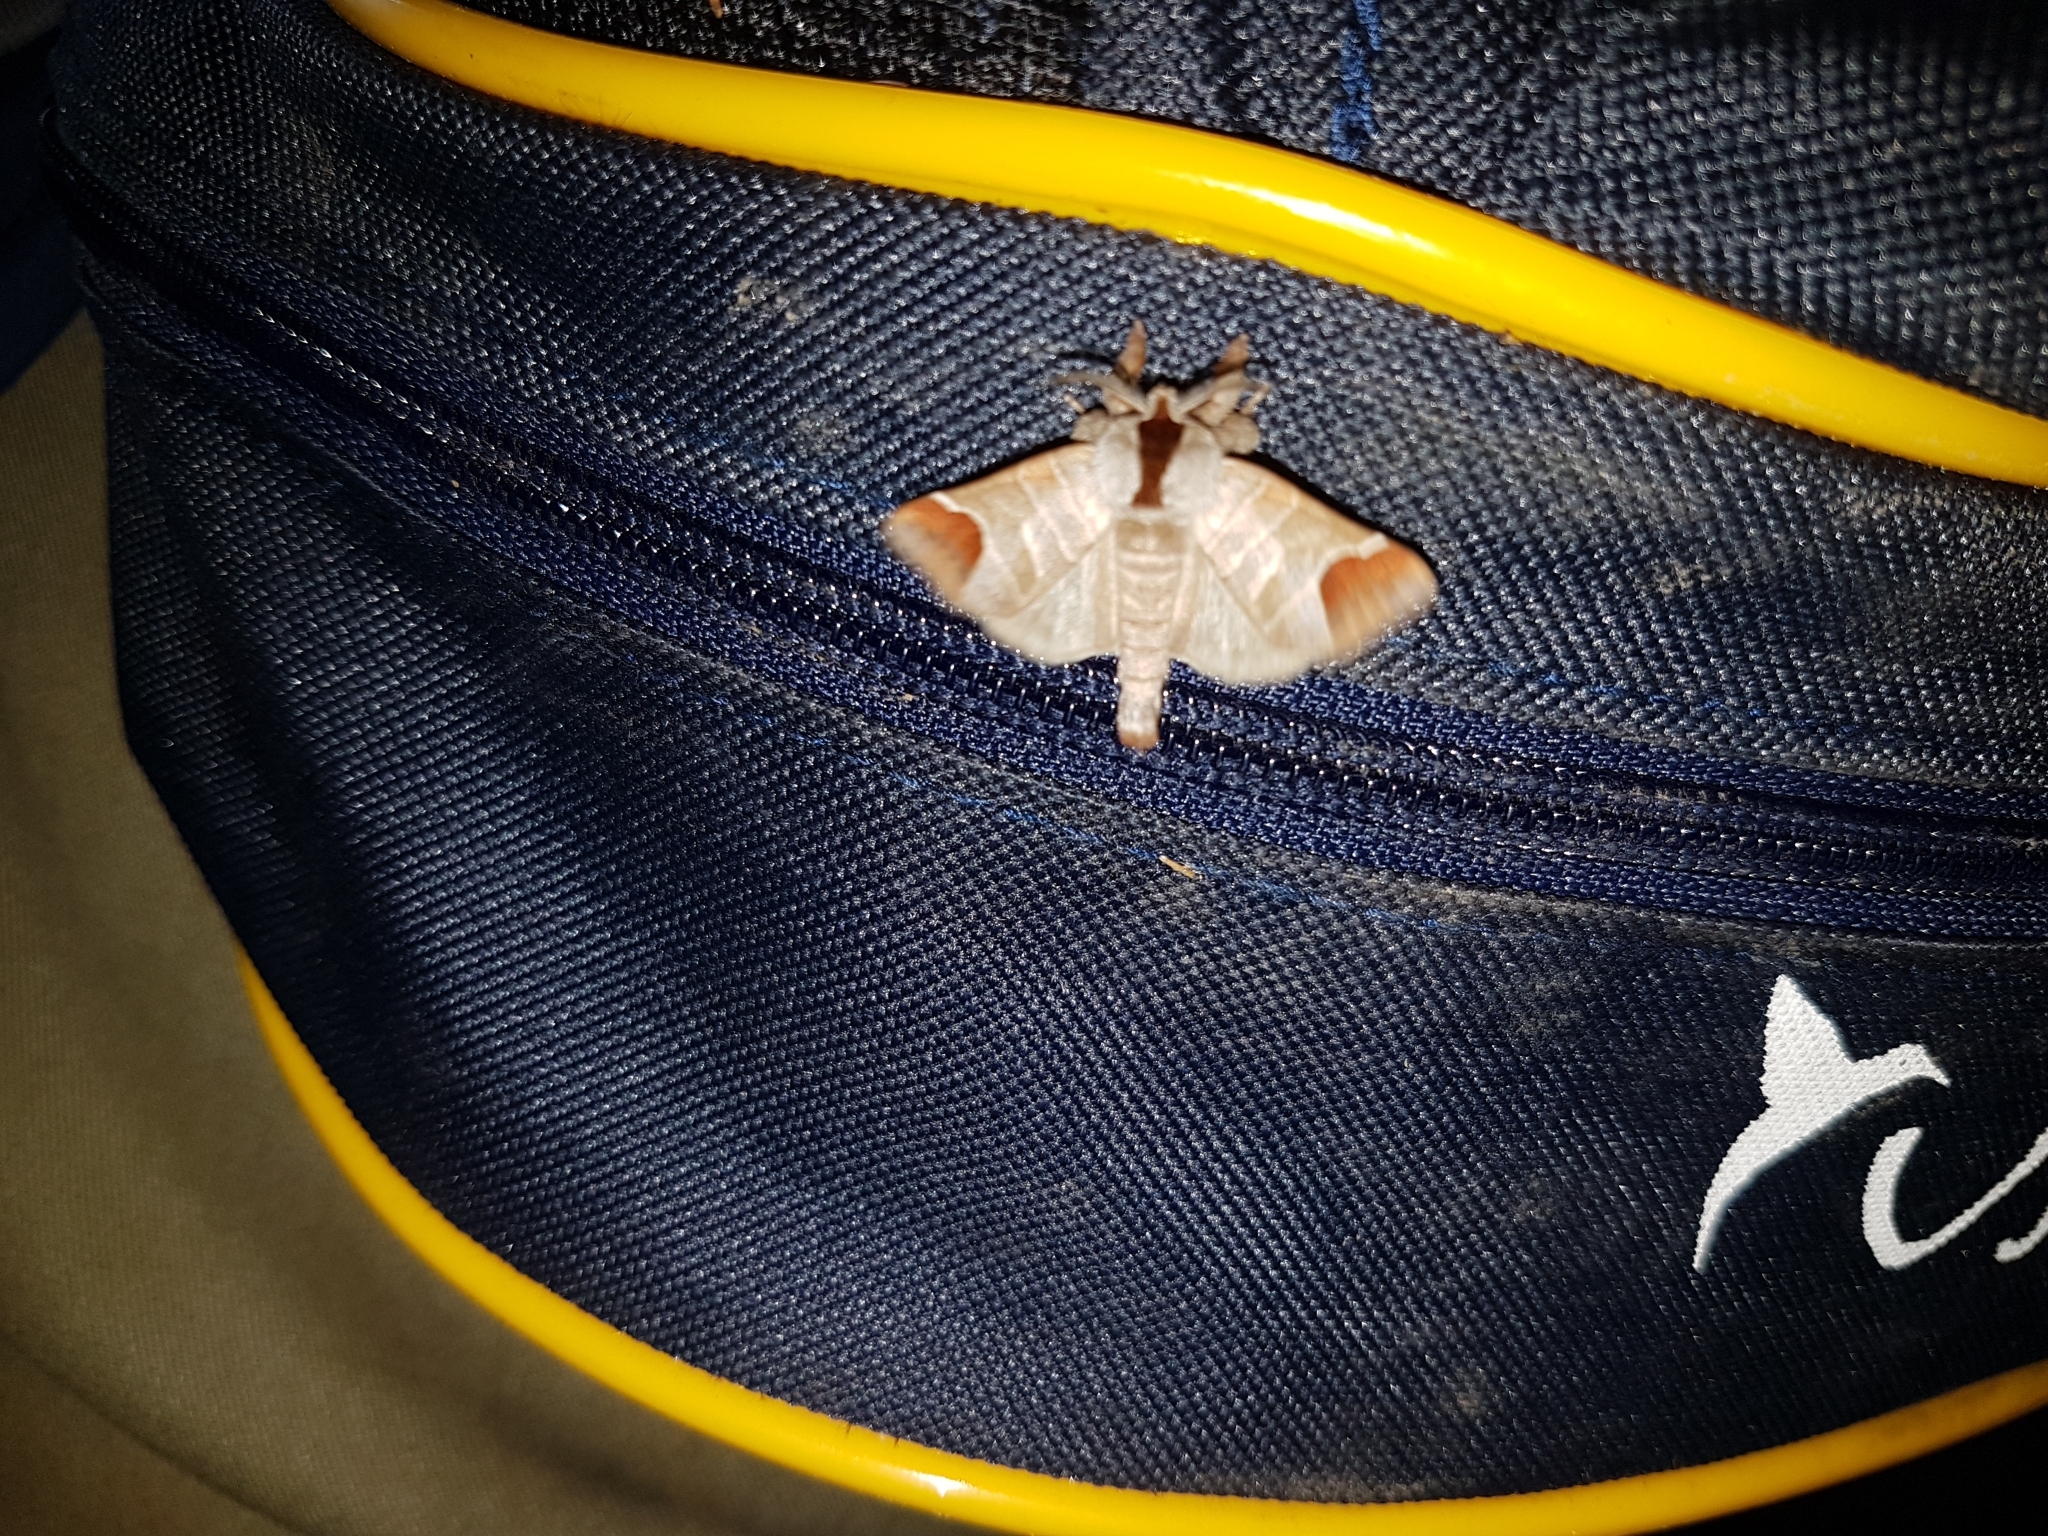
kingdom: Animalia
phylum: Arthropoda
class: Insecta
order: Lepidoptera
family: Notodontidae
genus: Clostera
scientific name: Clostera curtula
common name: Chocolate-tip
